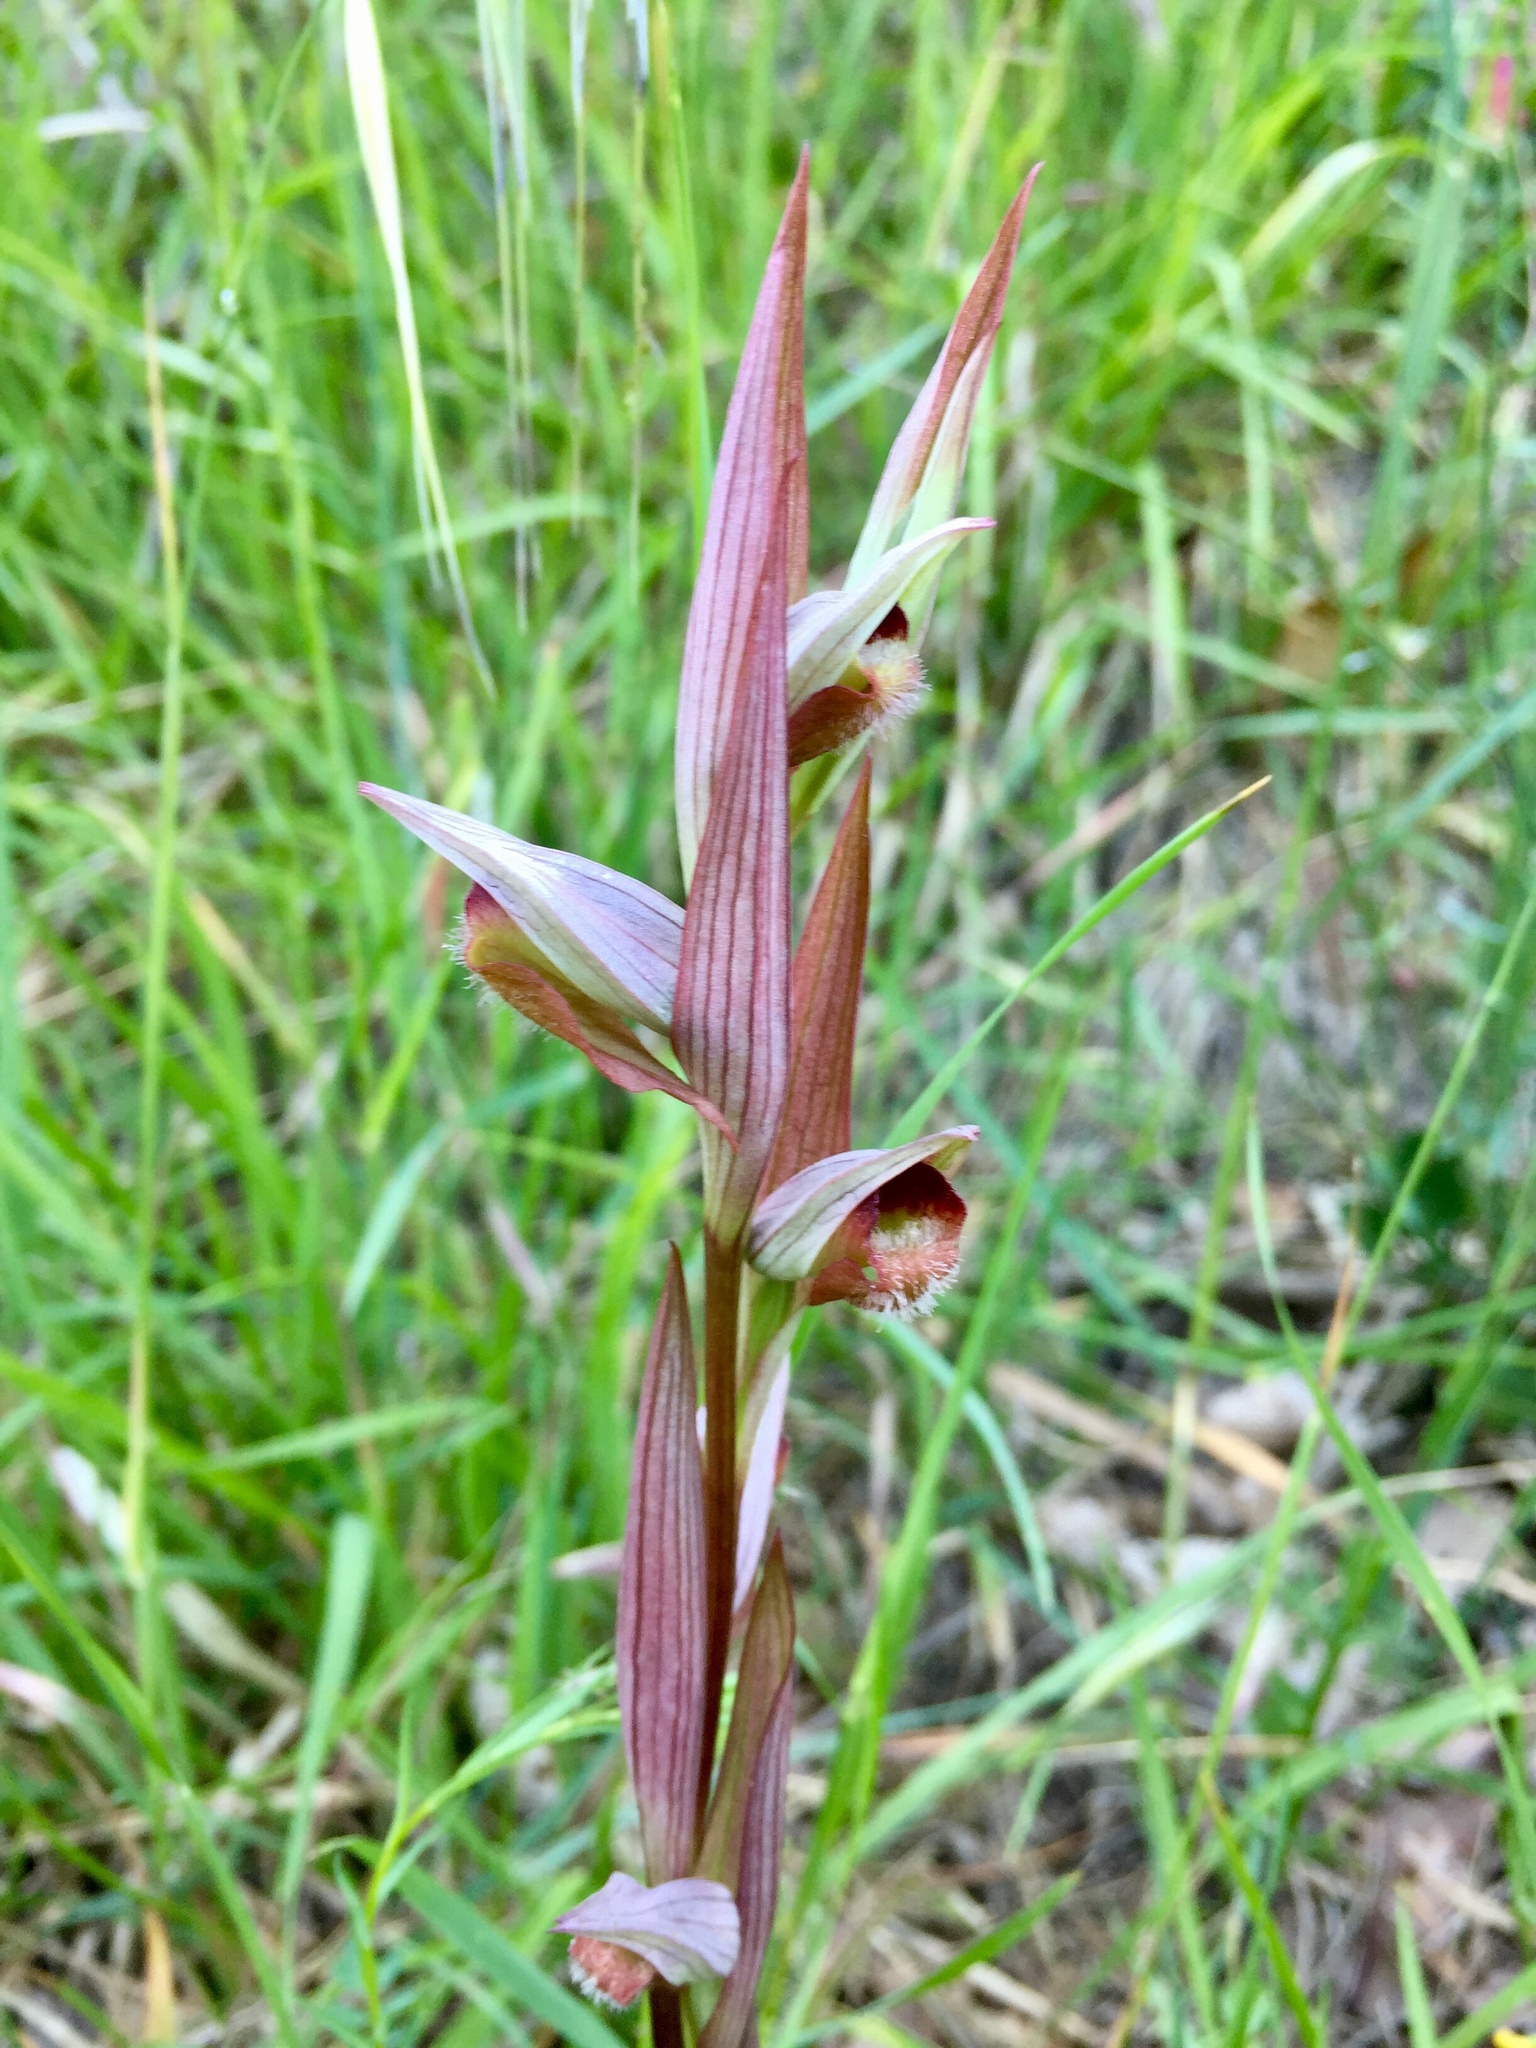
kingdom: Plantae
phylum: Tracheophyta
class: Liliopsida
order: Asparagales
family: Orchidaceae
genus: Serapias
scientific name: Serapias vomeracea
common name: Long-lipped tongue-orchid
